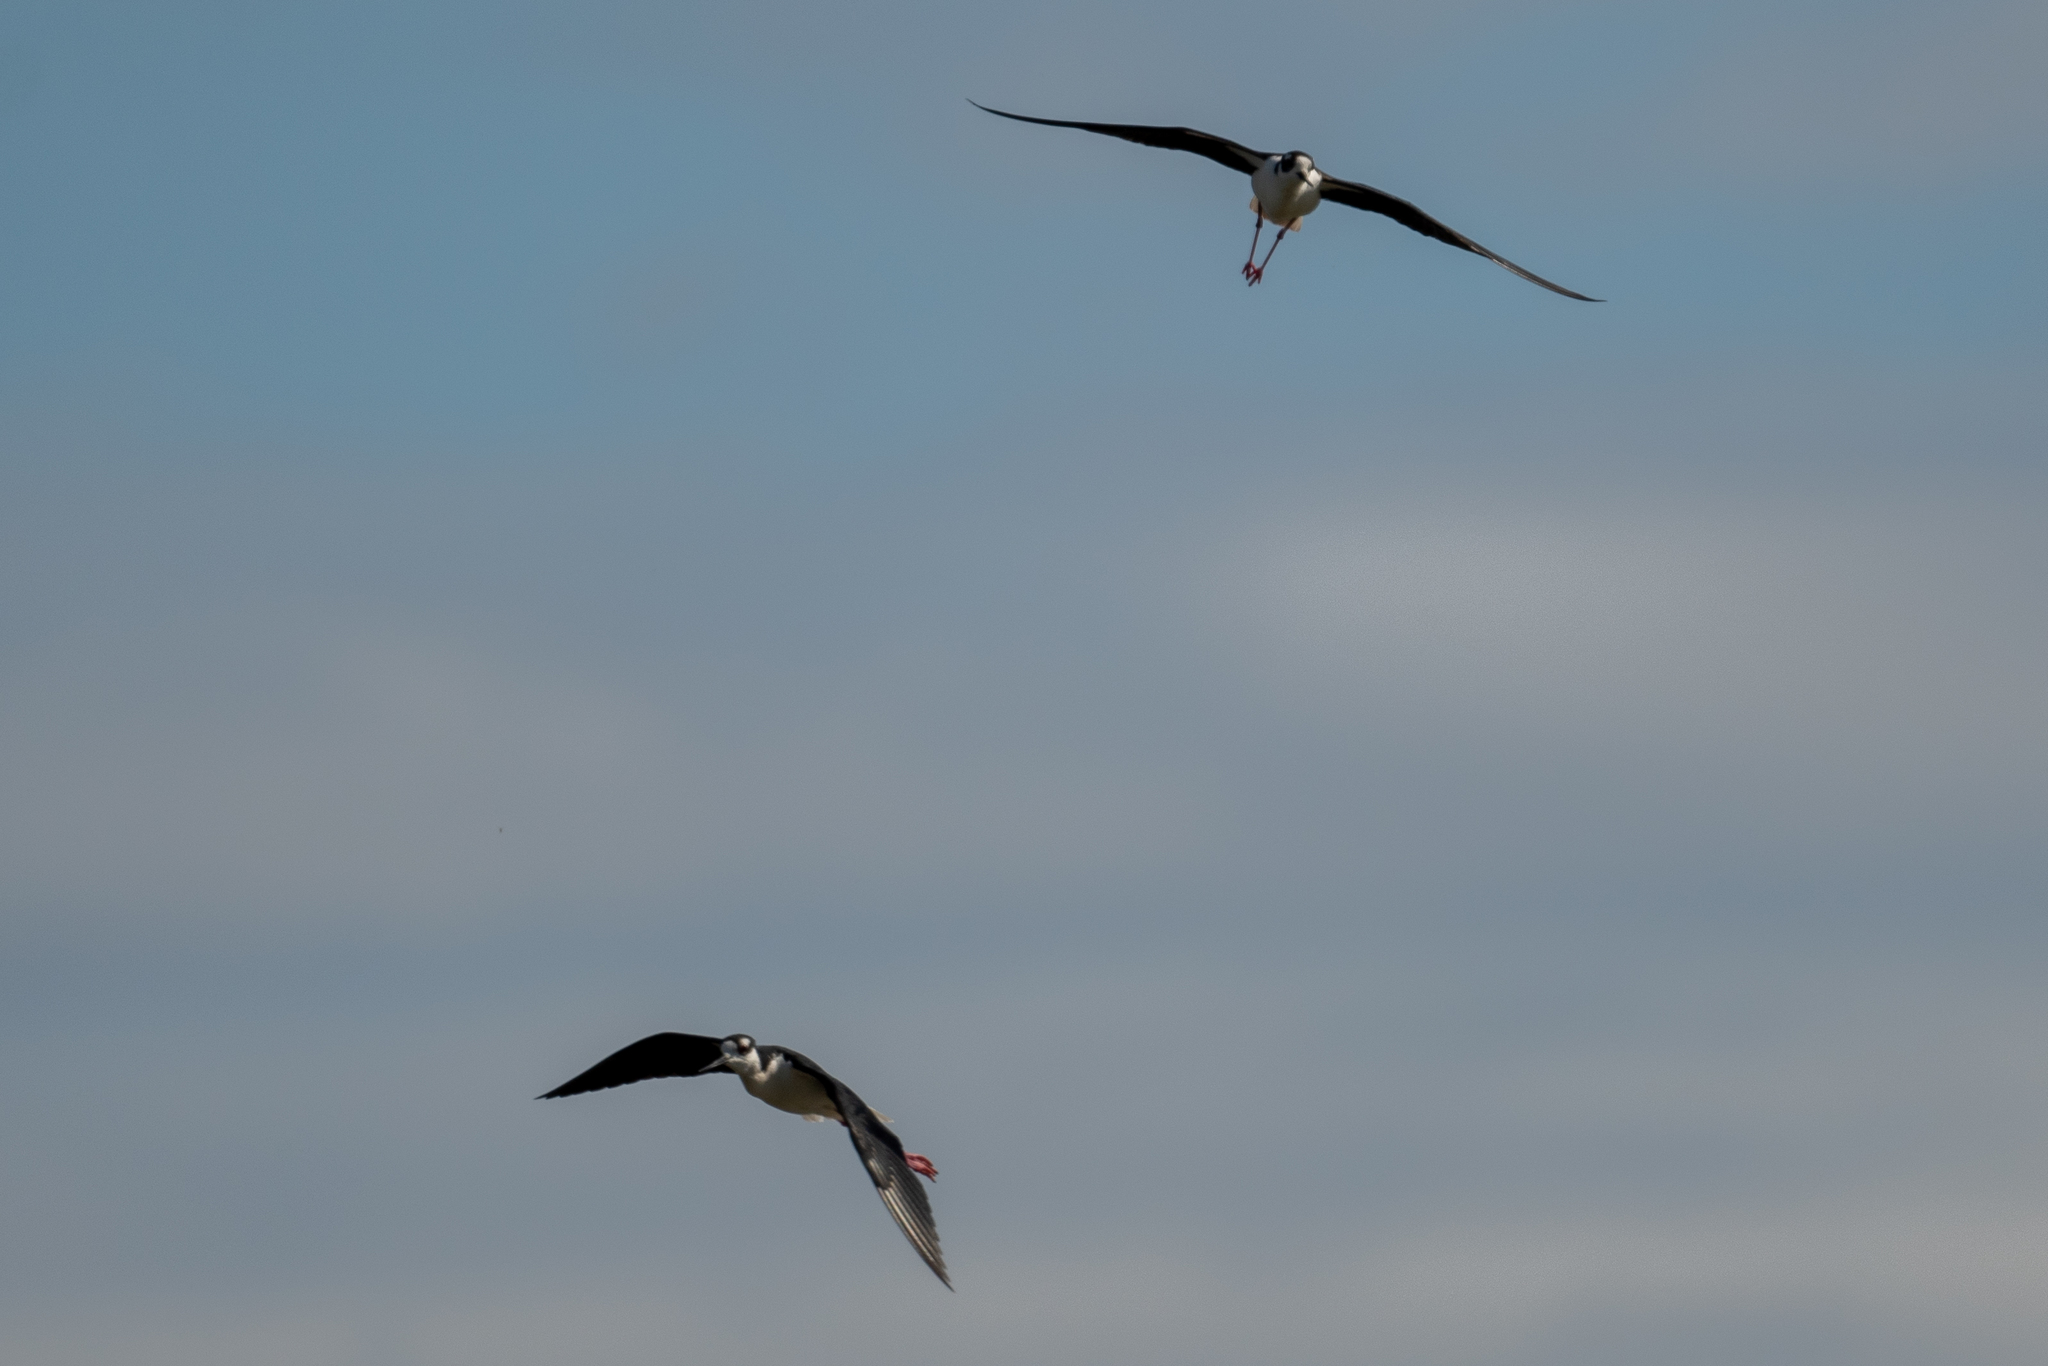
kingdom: Animalia
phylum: Chordata
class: Aves
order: Charadriiformes
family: Recurvirostridae
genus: Himantopus
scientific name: Himantopus mexicanus
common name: Black-necked stilt
